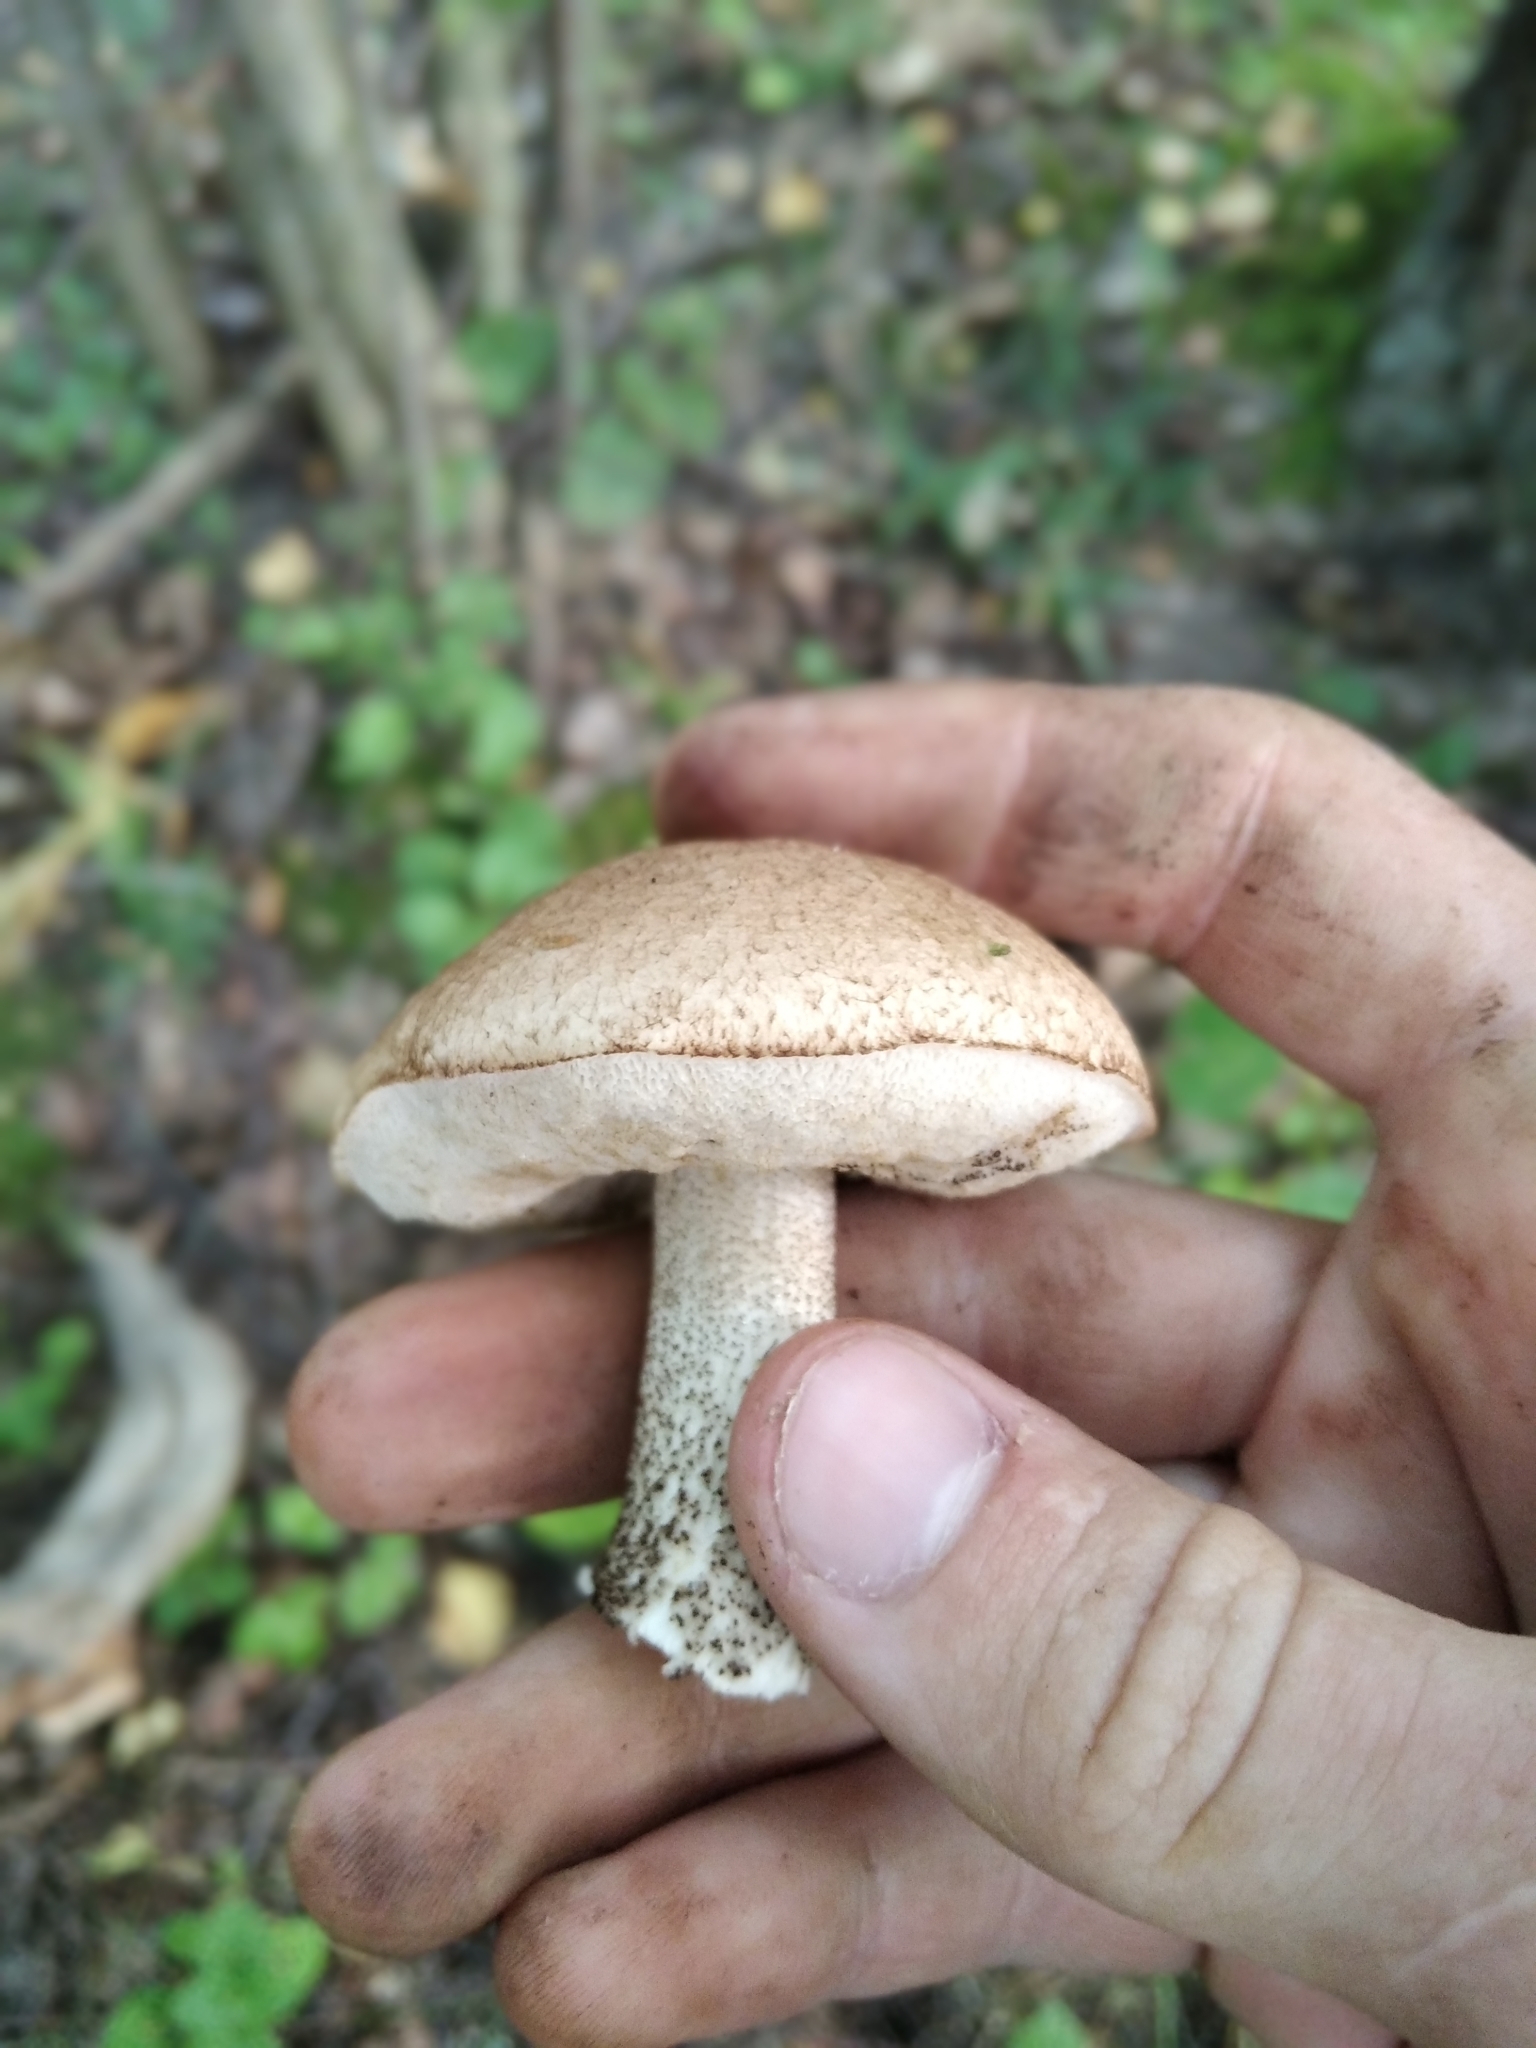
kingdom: Fungi
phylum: Basidiomycota
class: Agaricomycetes
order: Boletales
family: Boletaceae
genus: Leccinum
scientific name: Leccinum scabrum
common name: Blushing bolete
